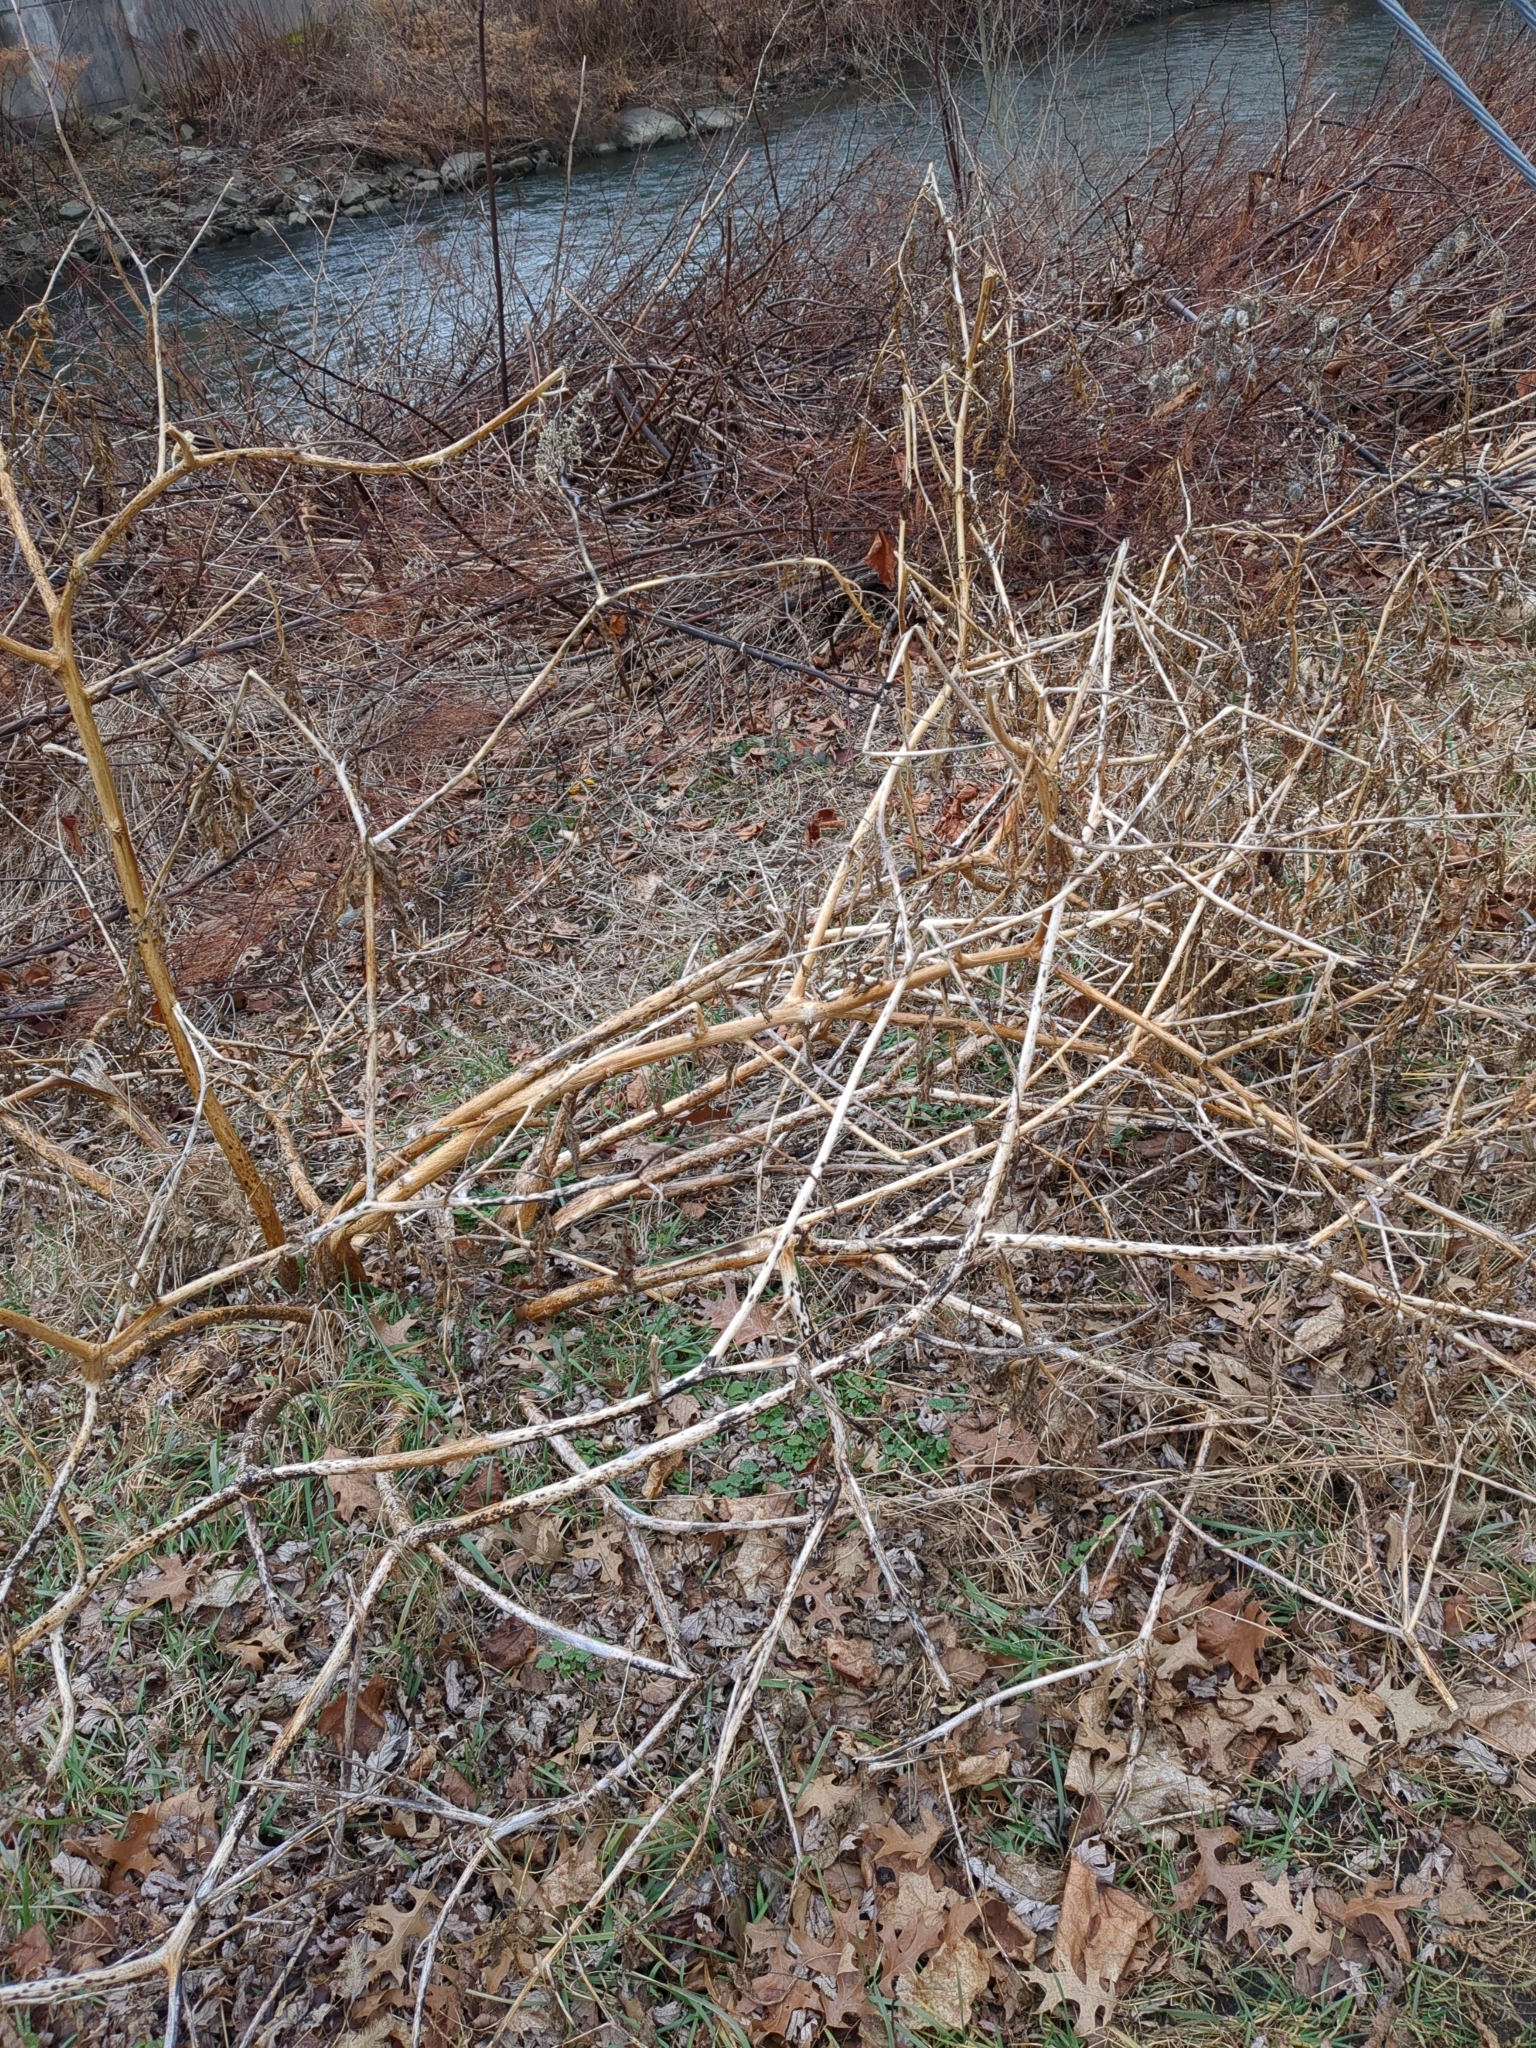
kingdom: Plantae
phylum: Tracheophyta
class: Magnoliopsida
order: Caryophyllales
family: Phytolaccaceae
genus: Phytolacca
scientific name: Phytolacca americana
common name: American pokeweed
